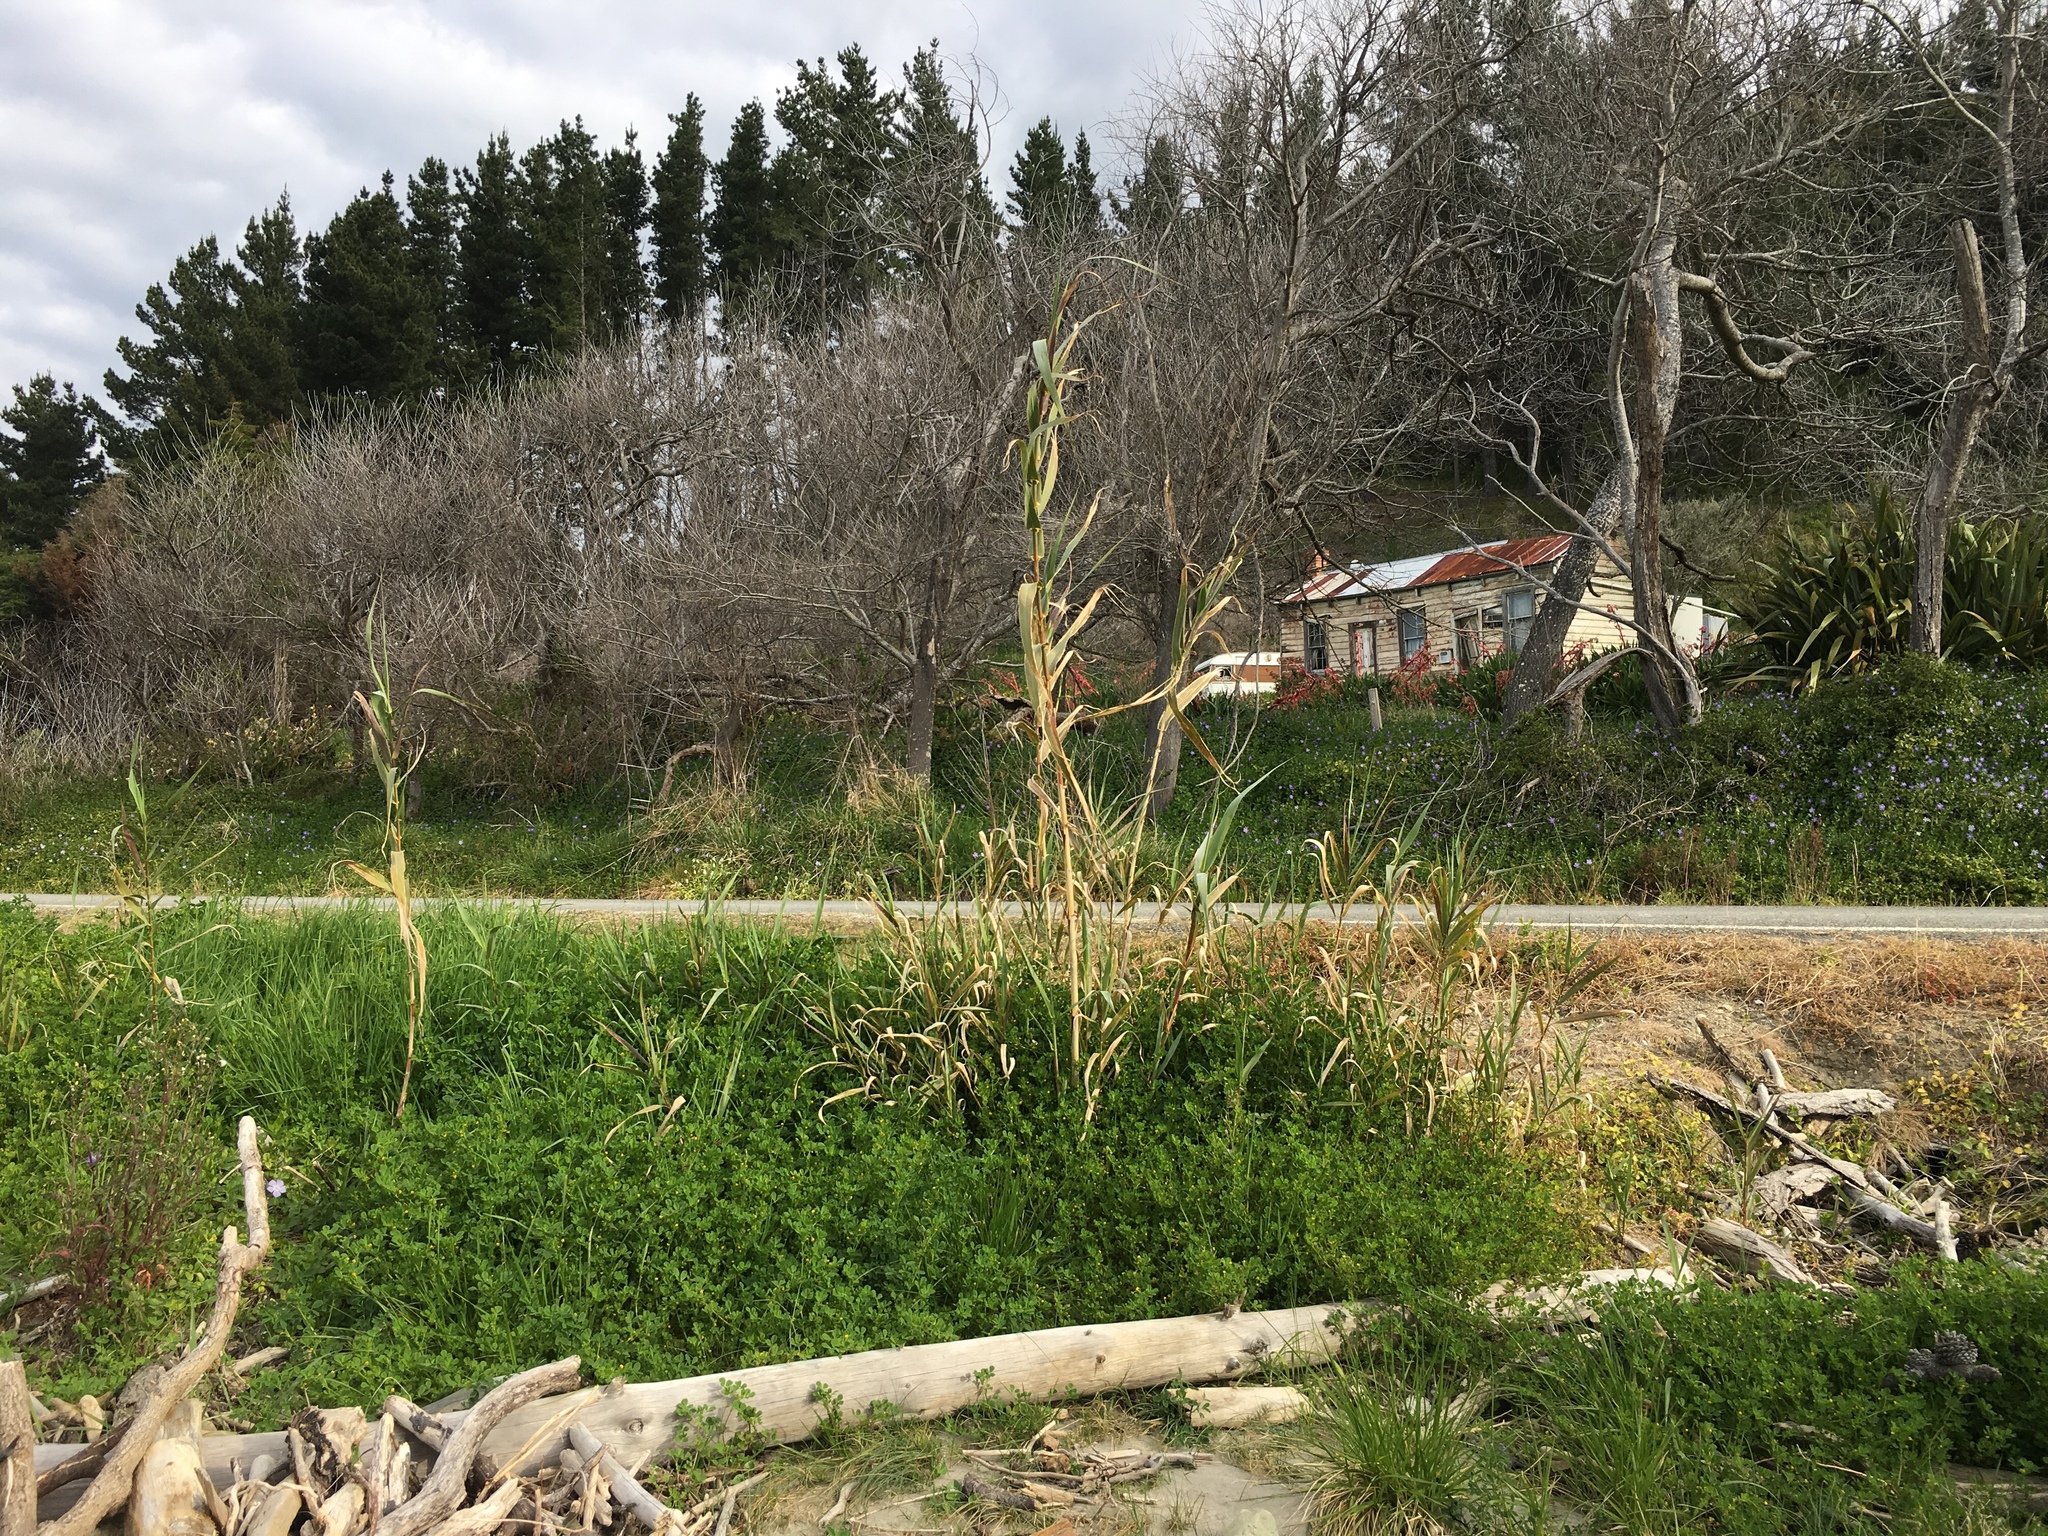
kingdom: Plantae
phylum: Tracheophyta
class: Liliopsida
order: Poales
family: Poaceae
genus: Arundo
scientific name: Arundo donax
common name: Giant reed
